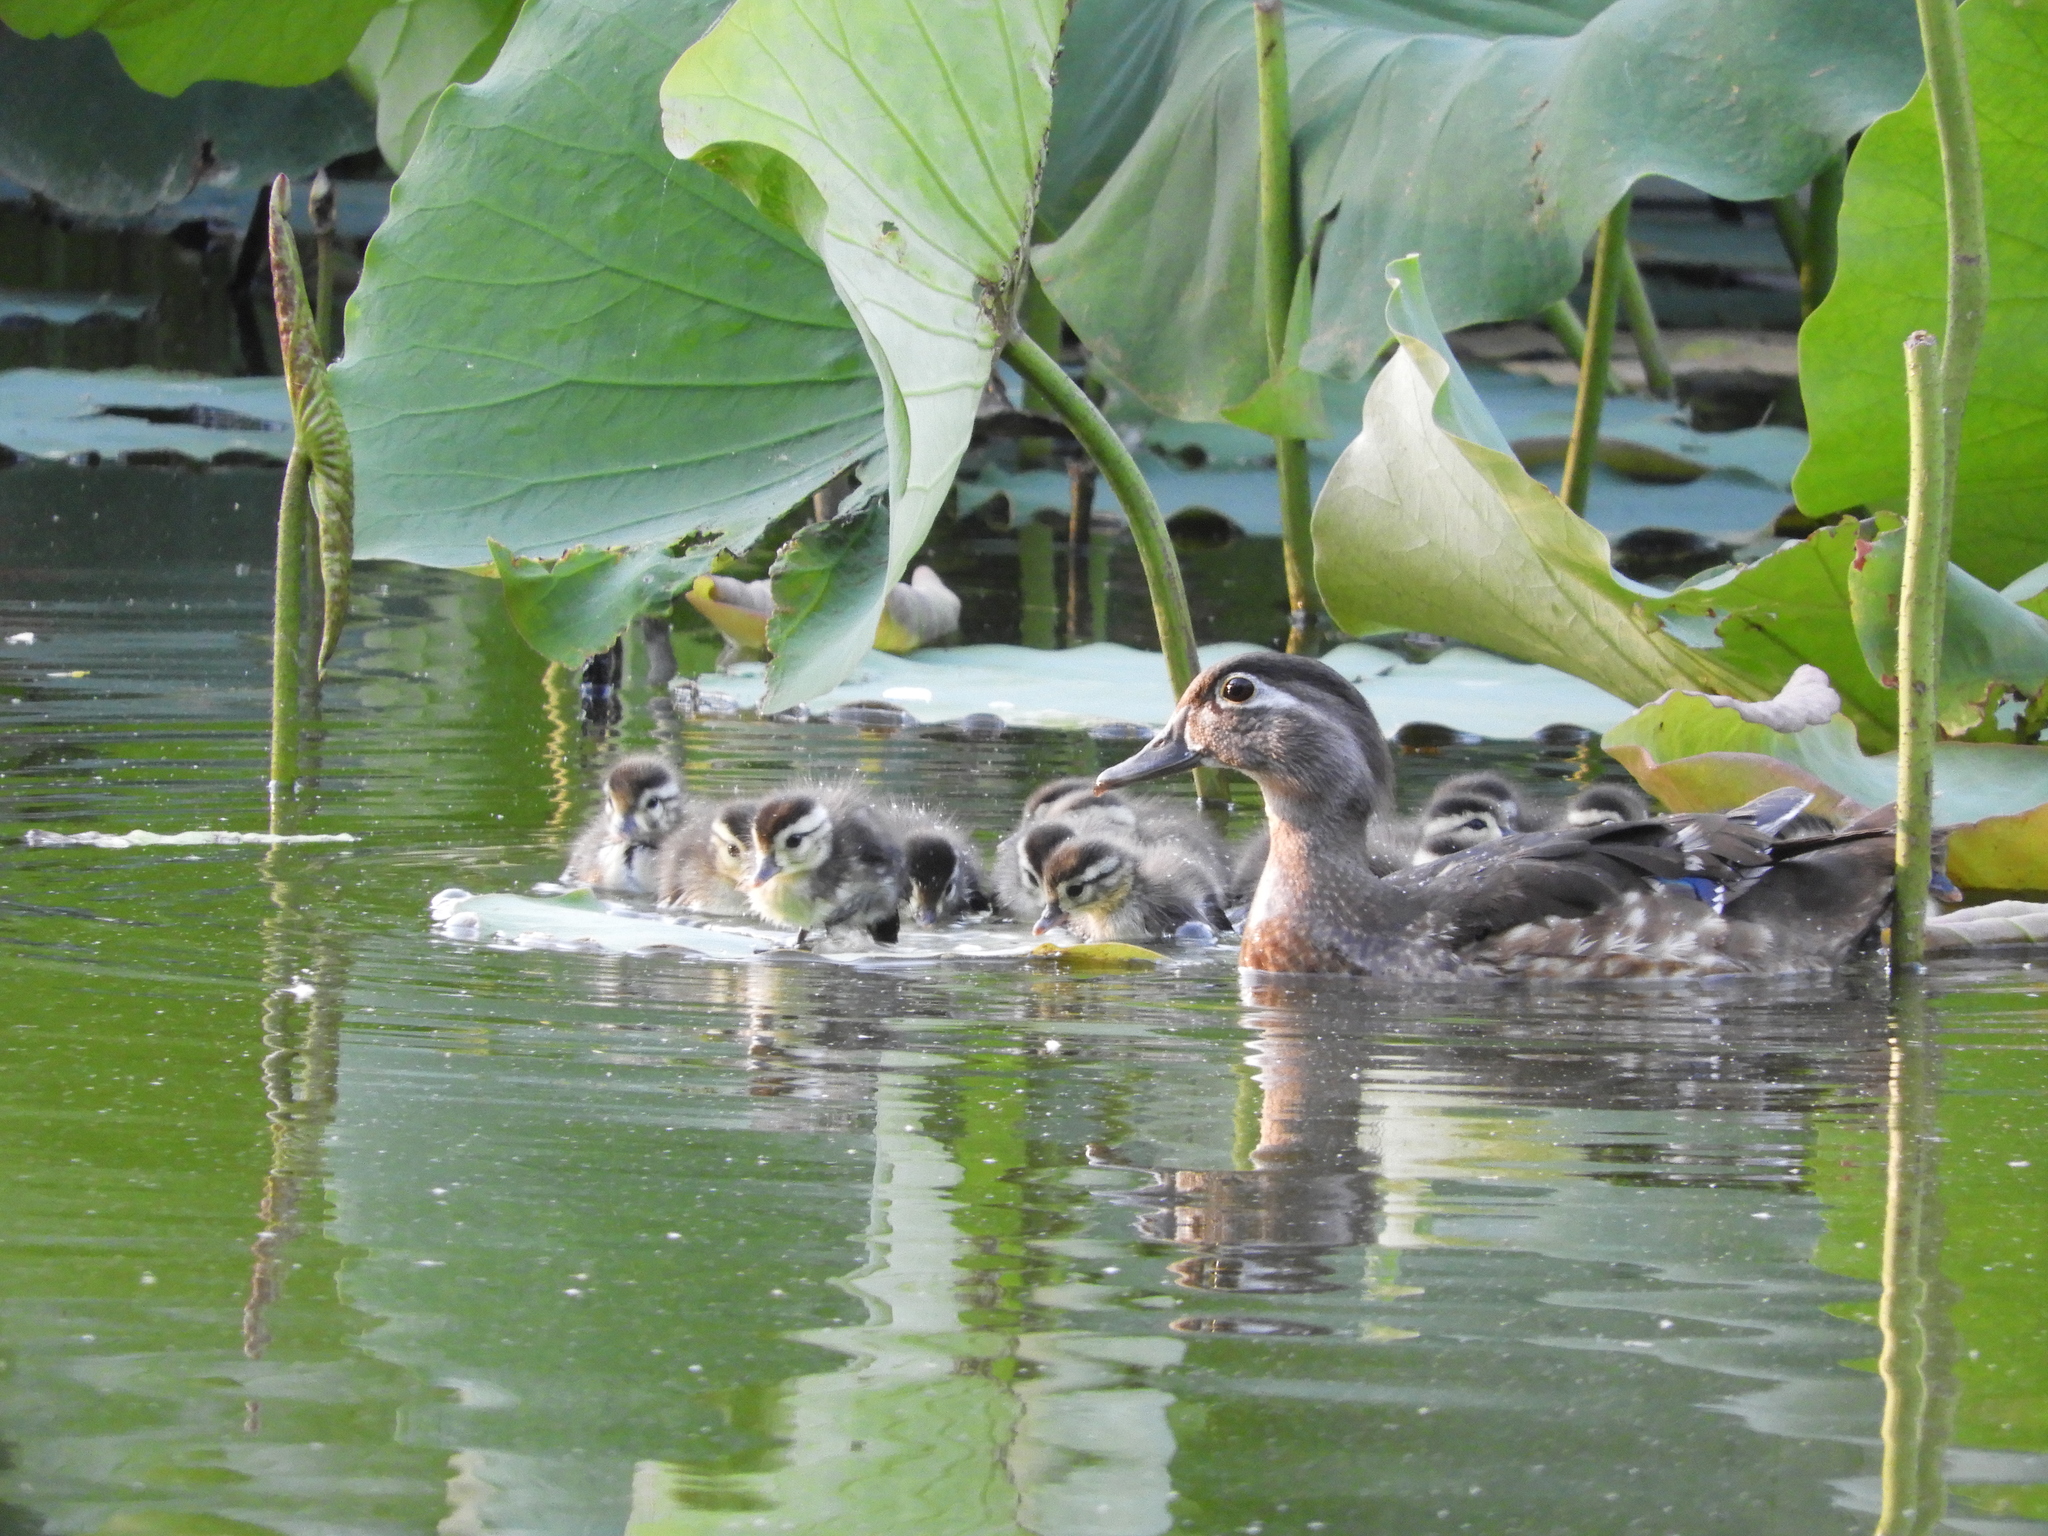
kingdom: Animalia
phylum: Chordata
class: Aves
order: Anseriformes
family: Anatidae
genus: Aix
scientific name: Aix sponsa
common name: Wood duck
